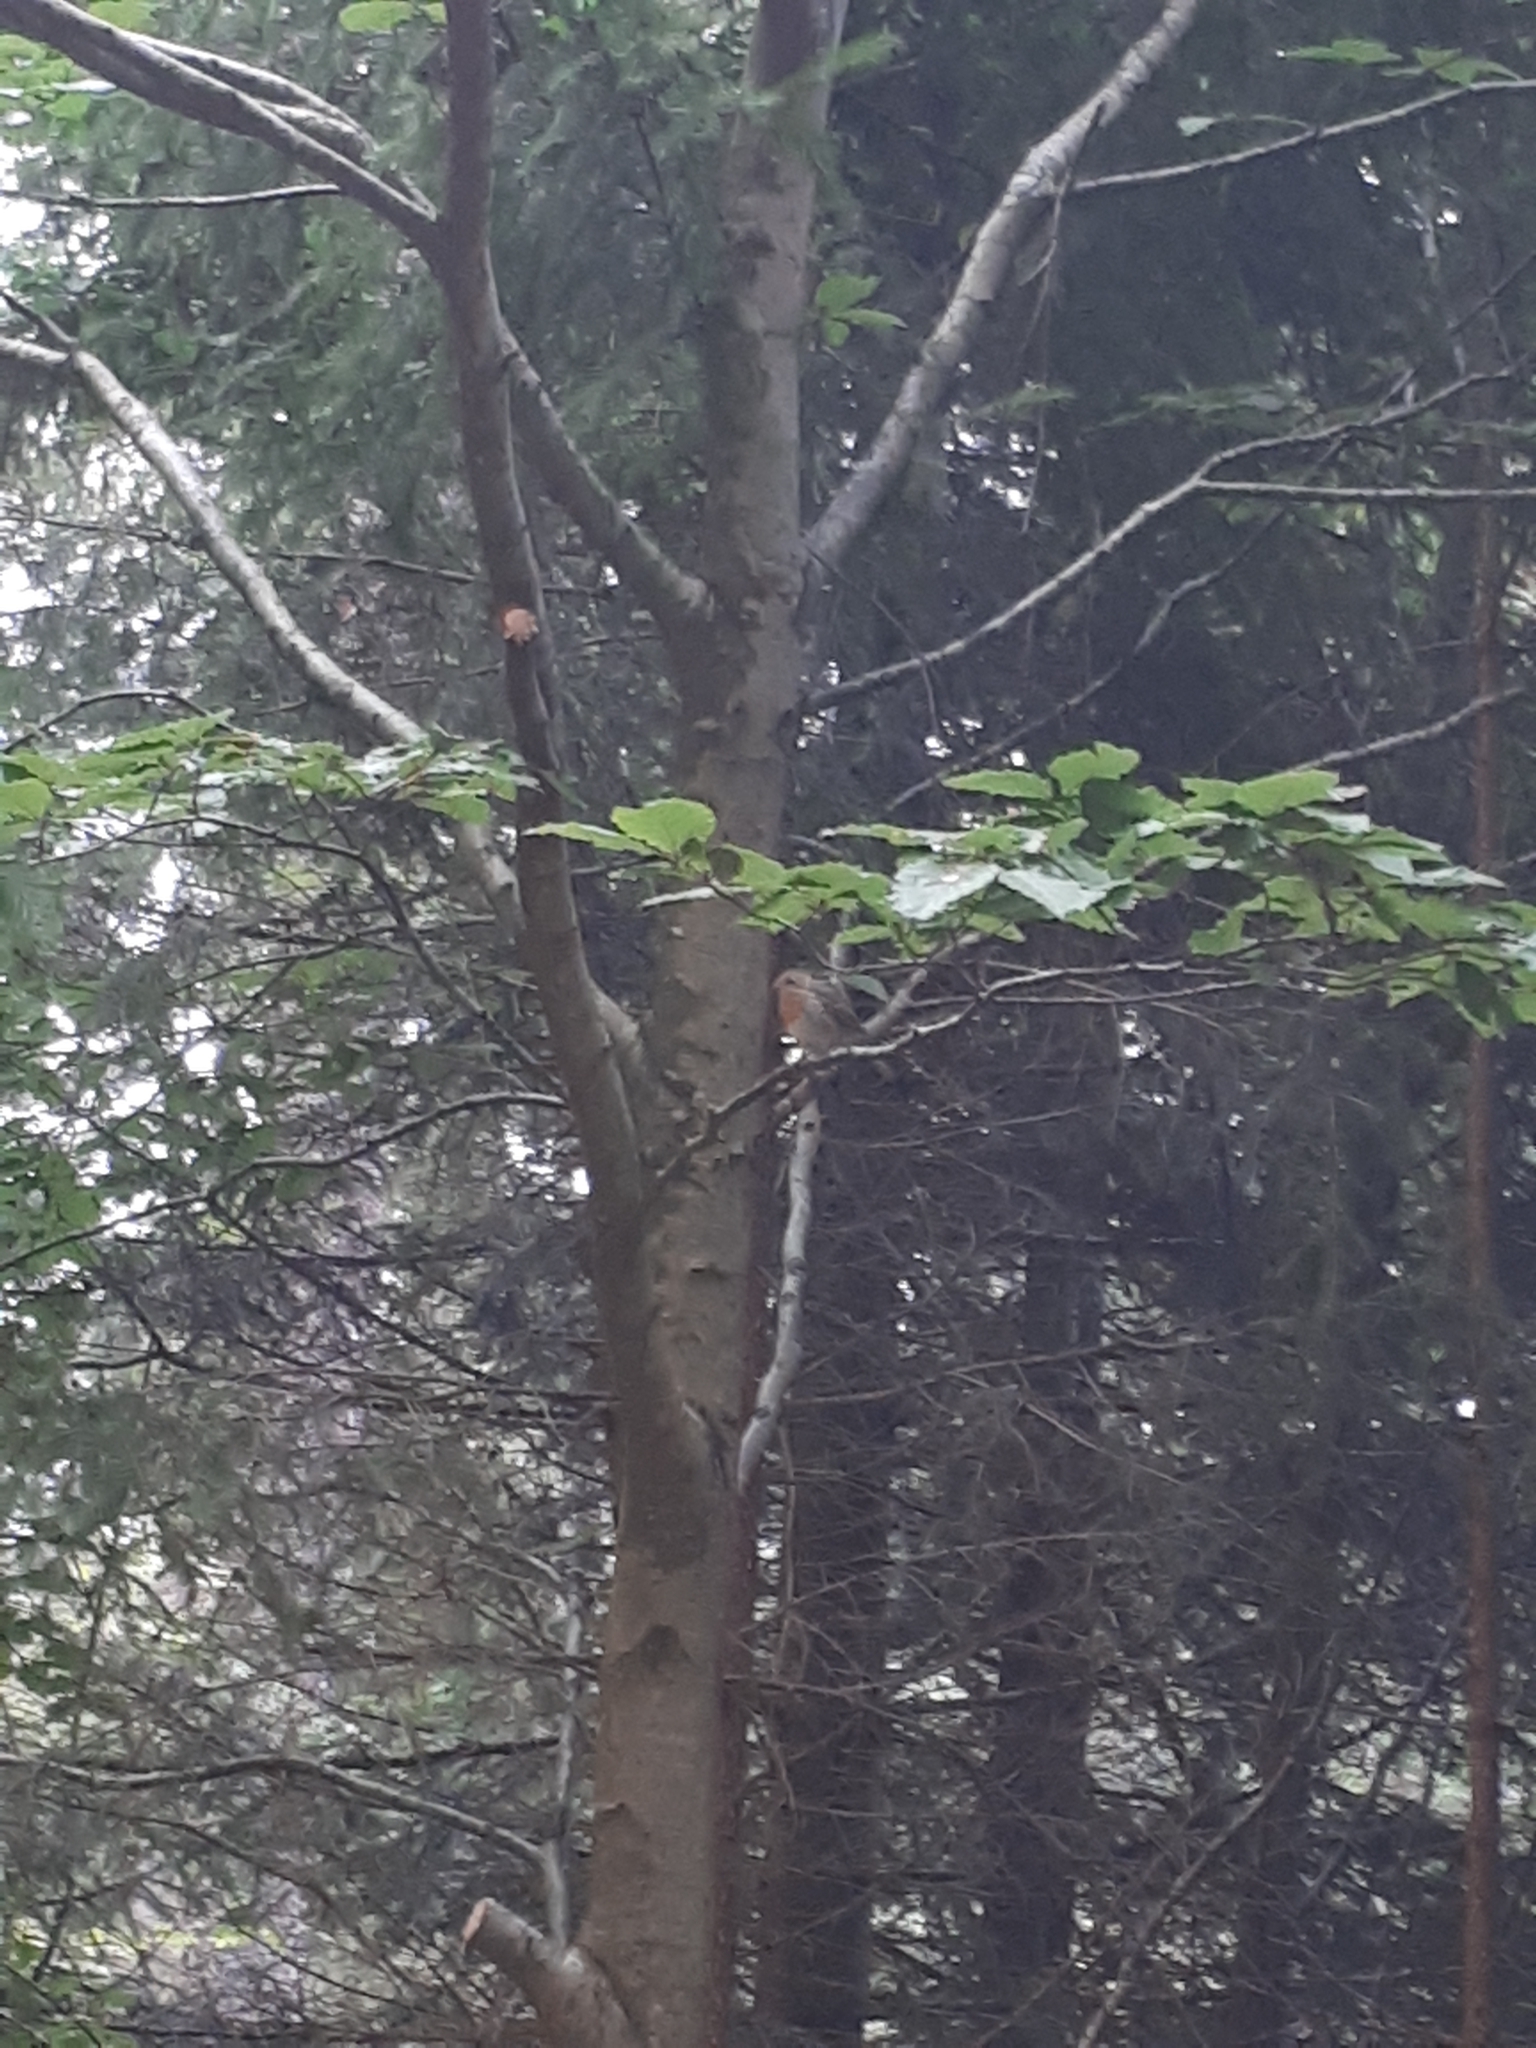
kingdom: Animalia
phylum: Chordata
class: Aves
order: Passeriformes
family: Muscicapidae
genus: Erithacus
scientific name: Erithacus rubecula
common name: European robin
